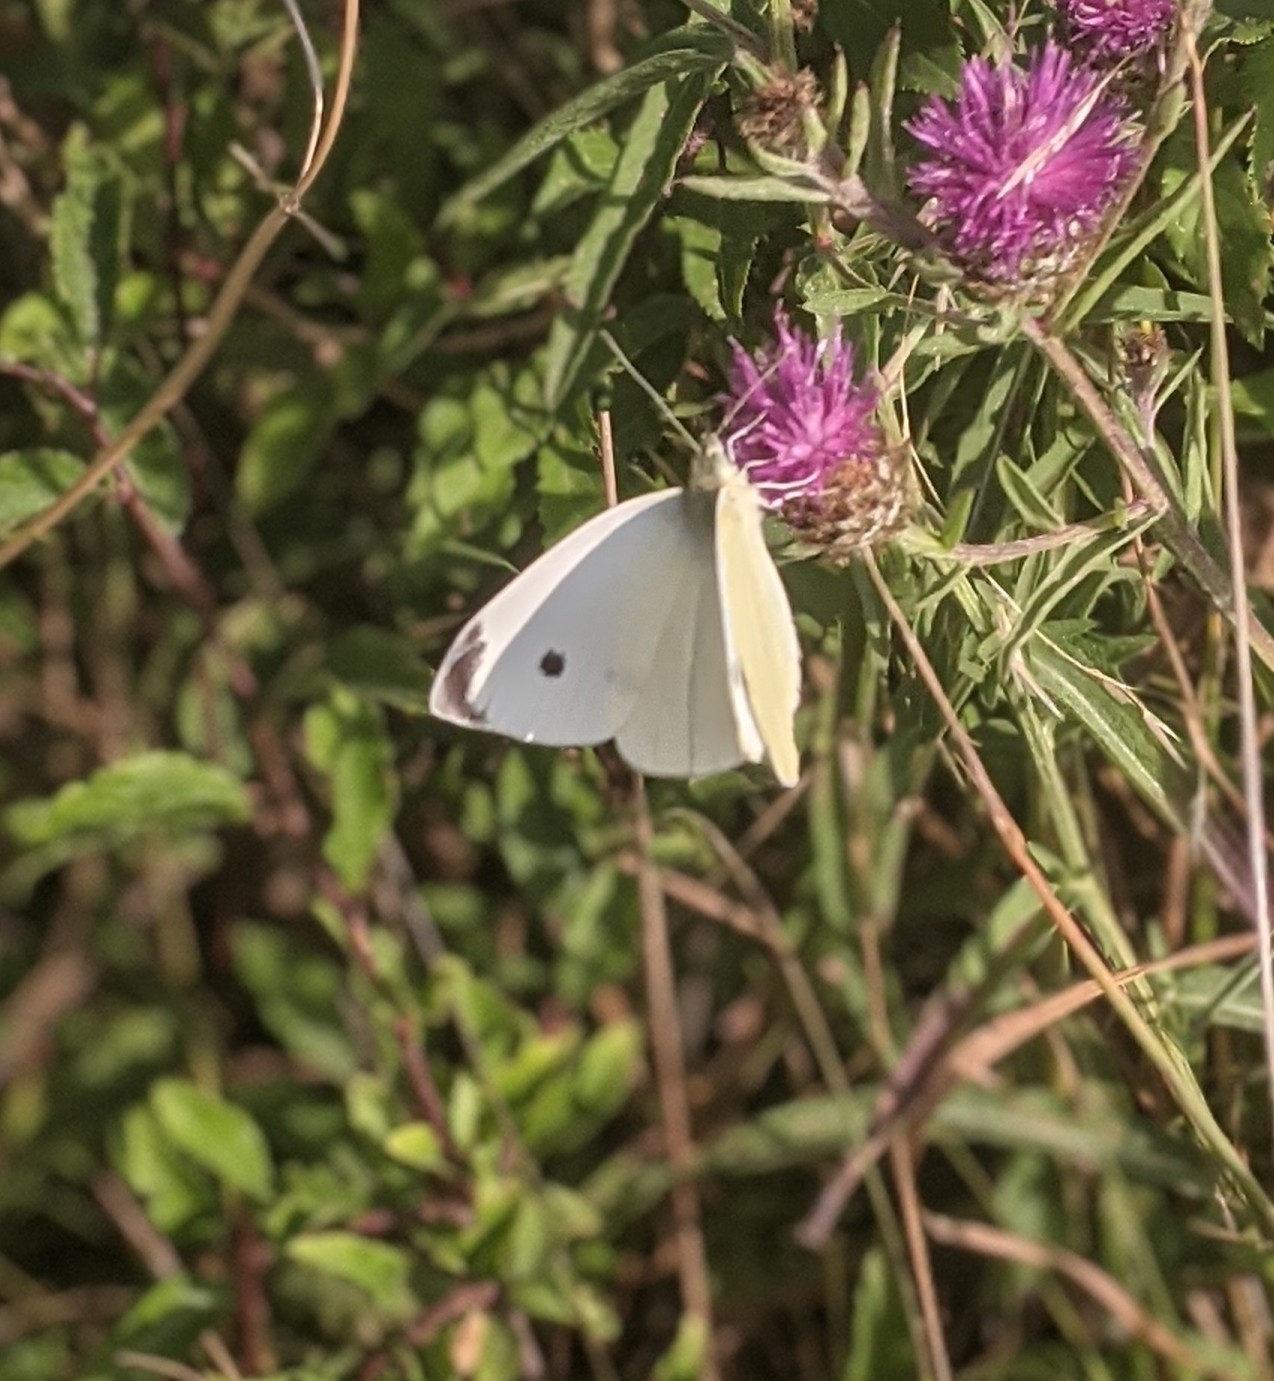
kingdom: Animalia
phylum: Arthropoda
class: Insecta
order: Lepidoptera
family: Pieridae
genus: Pieris
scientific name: Pieris rapae
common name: Small white
